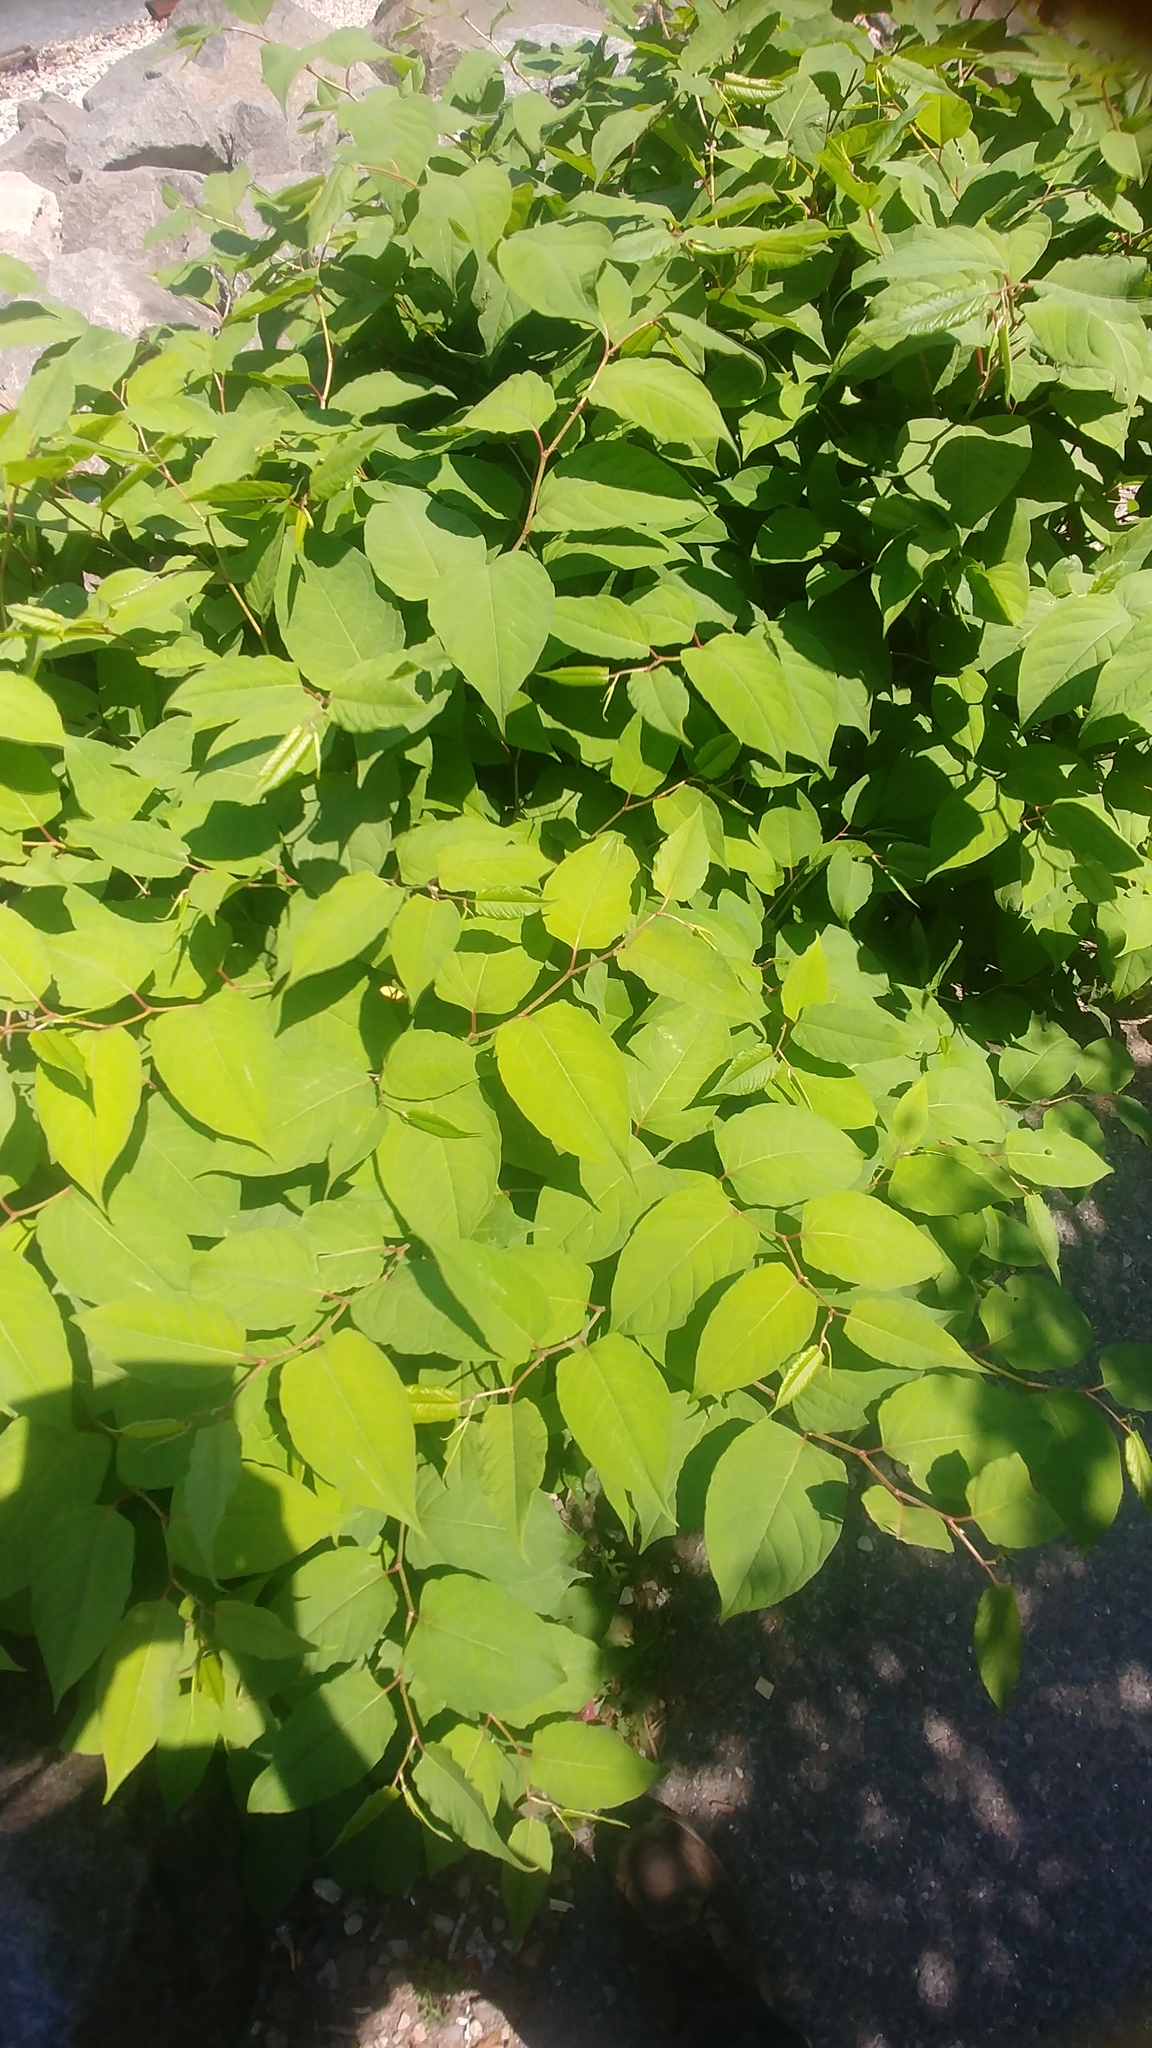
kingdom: Plantae
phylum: Tracheophyta
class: Magnoliopsida
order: Caryophyllales
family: Polygonaceae
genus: Reynoutria
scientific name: Reynoutria japonica
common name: Japanese knotweed
